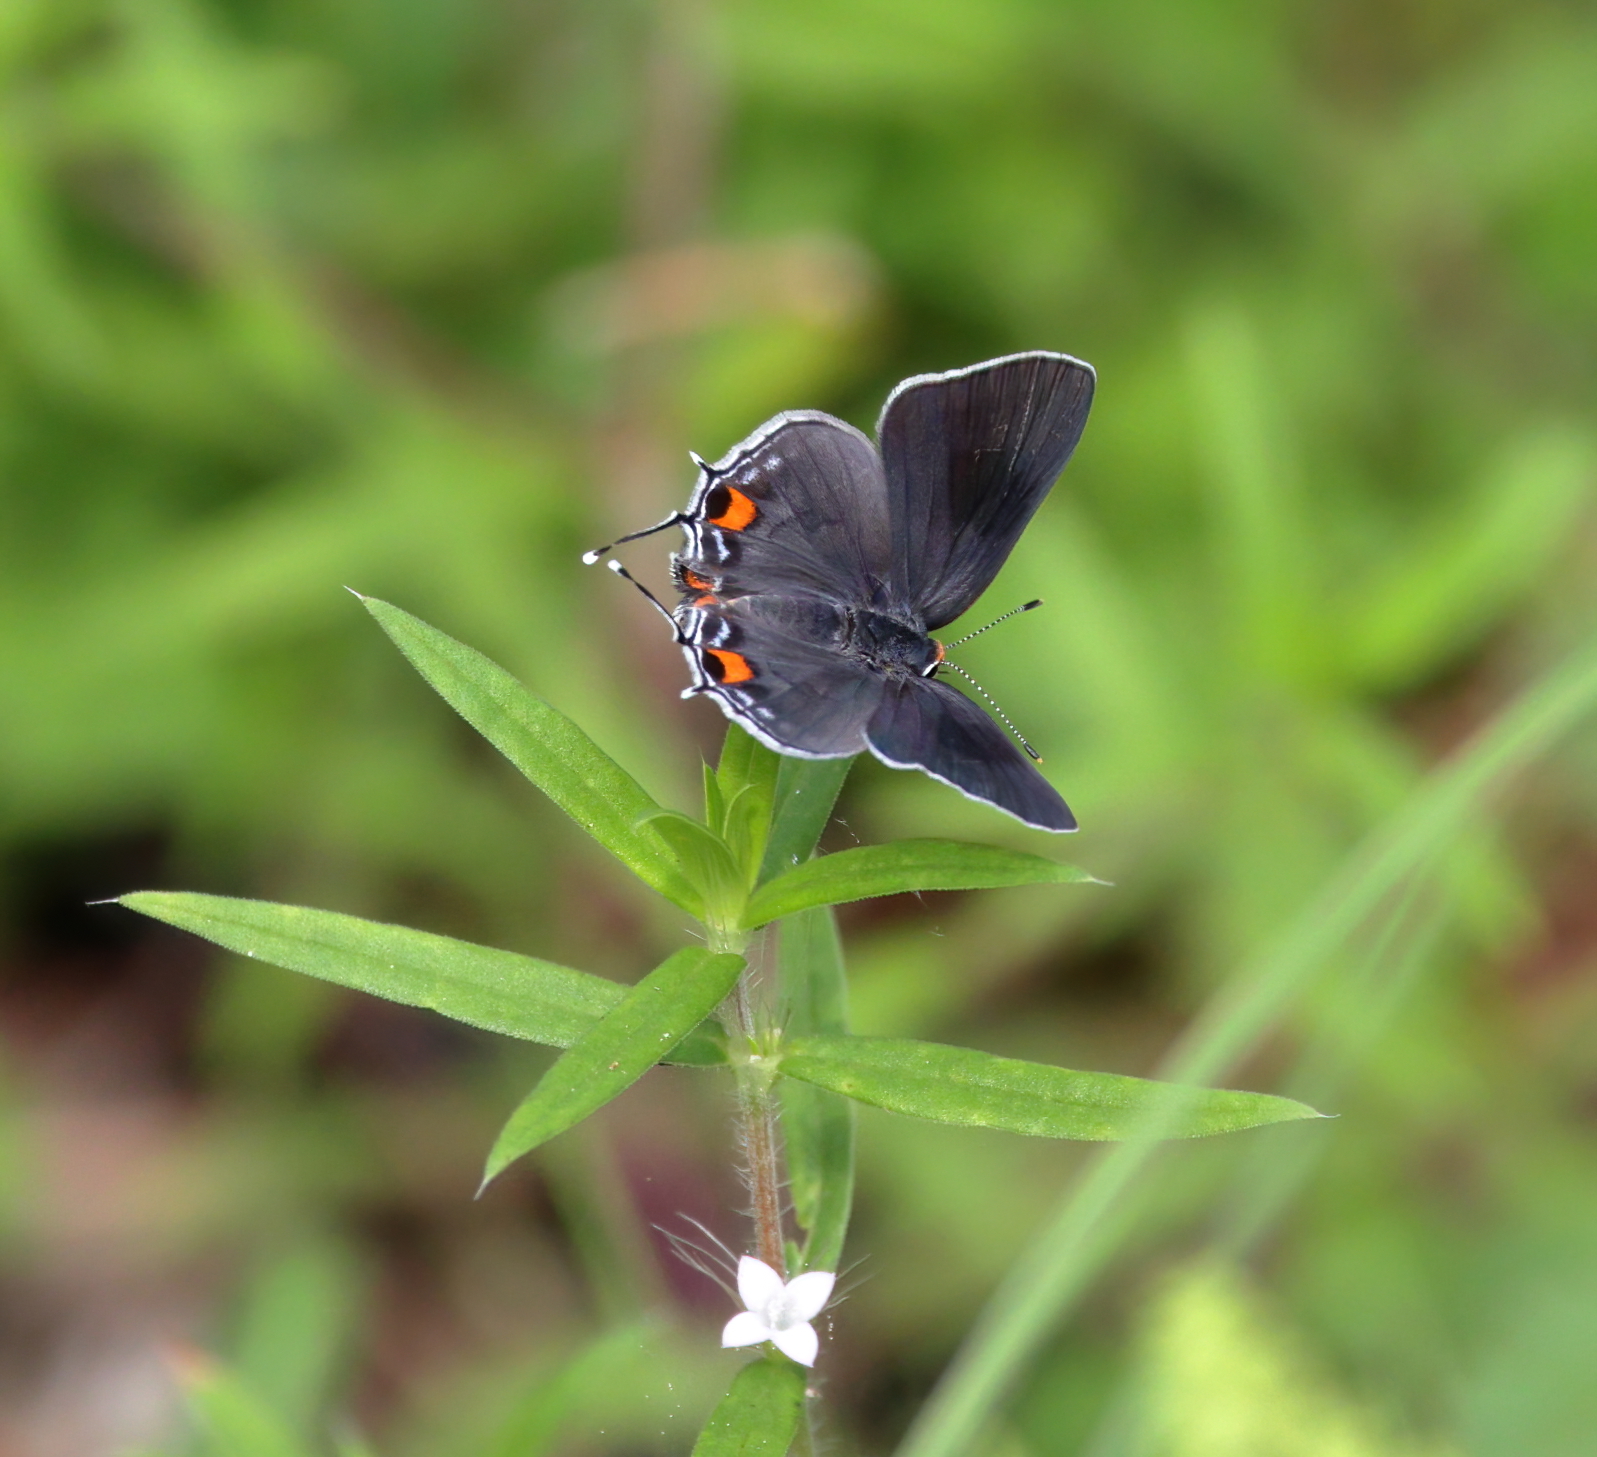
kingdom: Animalia
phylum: Arthropoda
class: Insecta
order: Lepidoptera
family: Lycaenidae
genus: Strymon
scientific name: Strymon melinus
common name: Gray hairstreak
